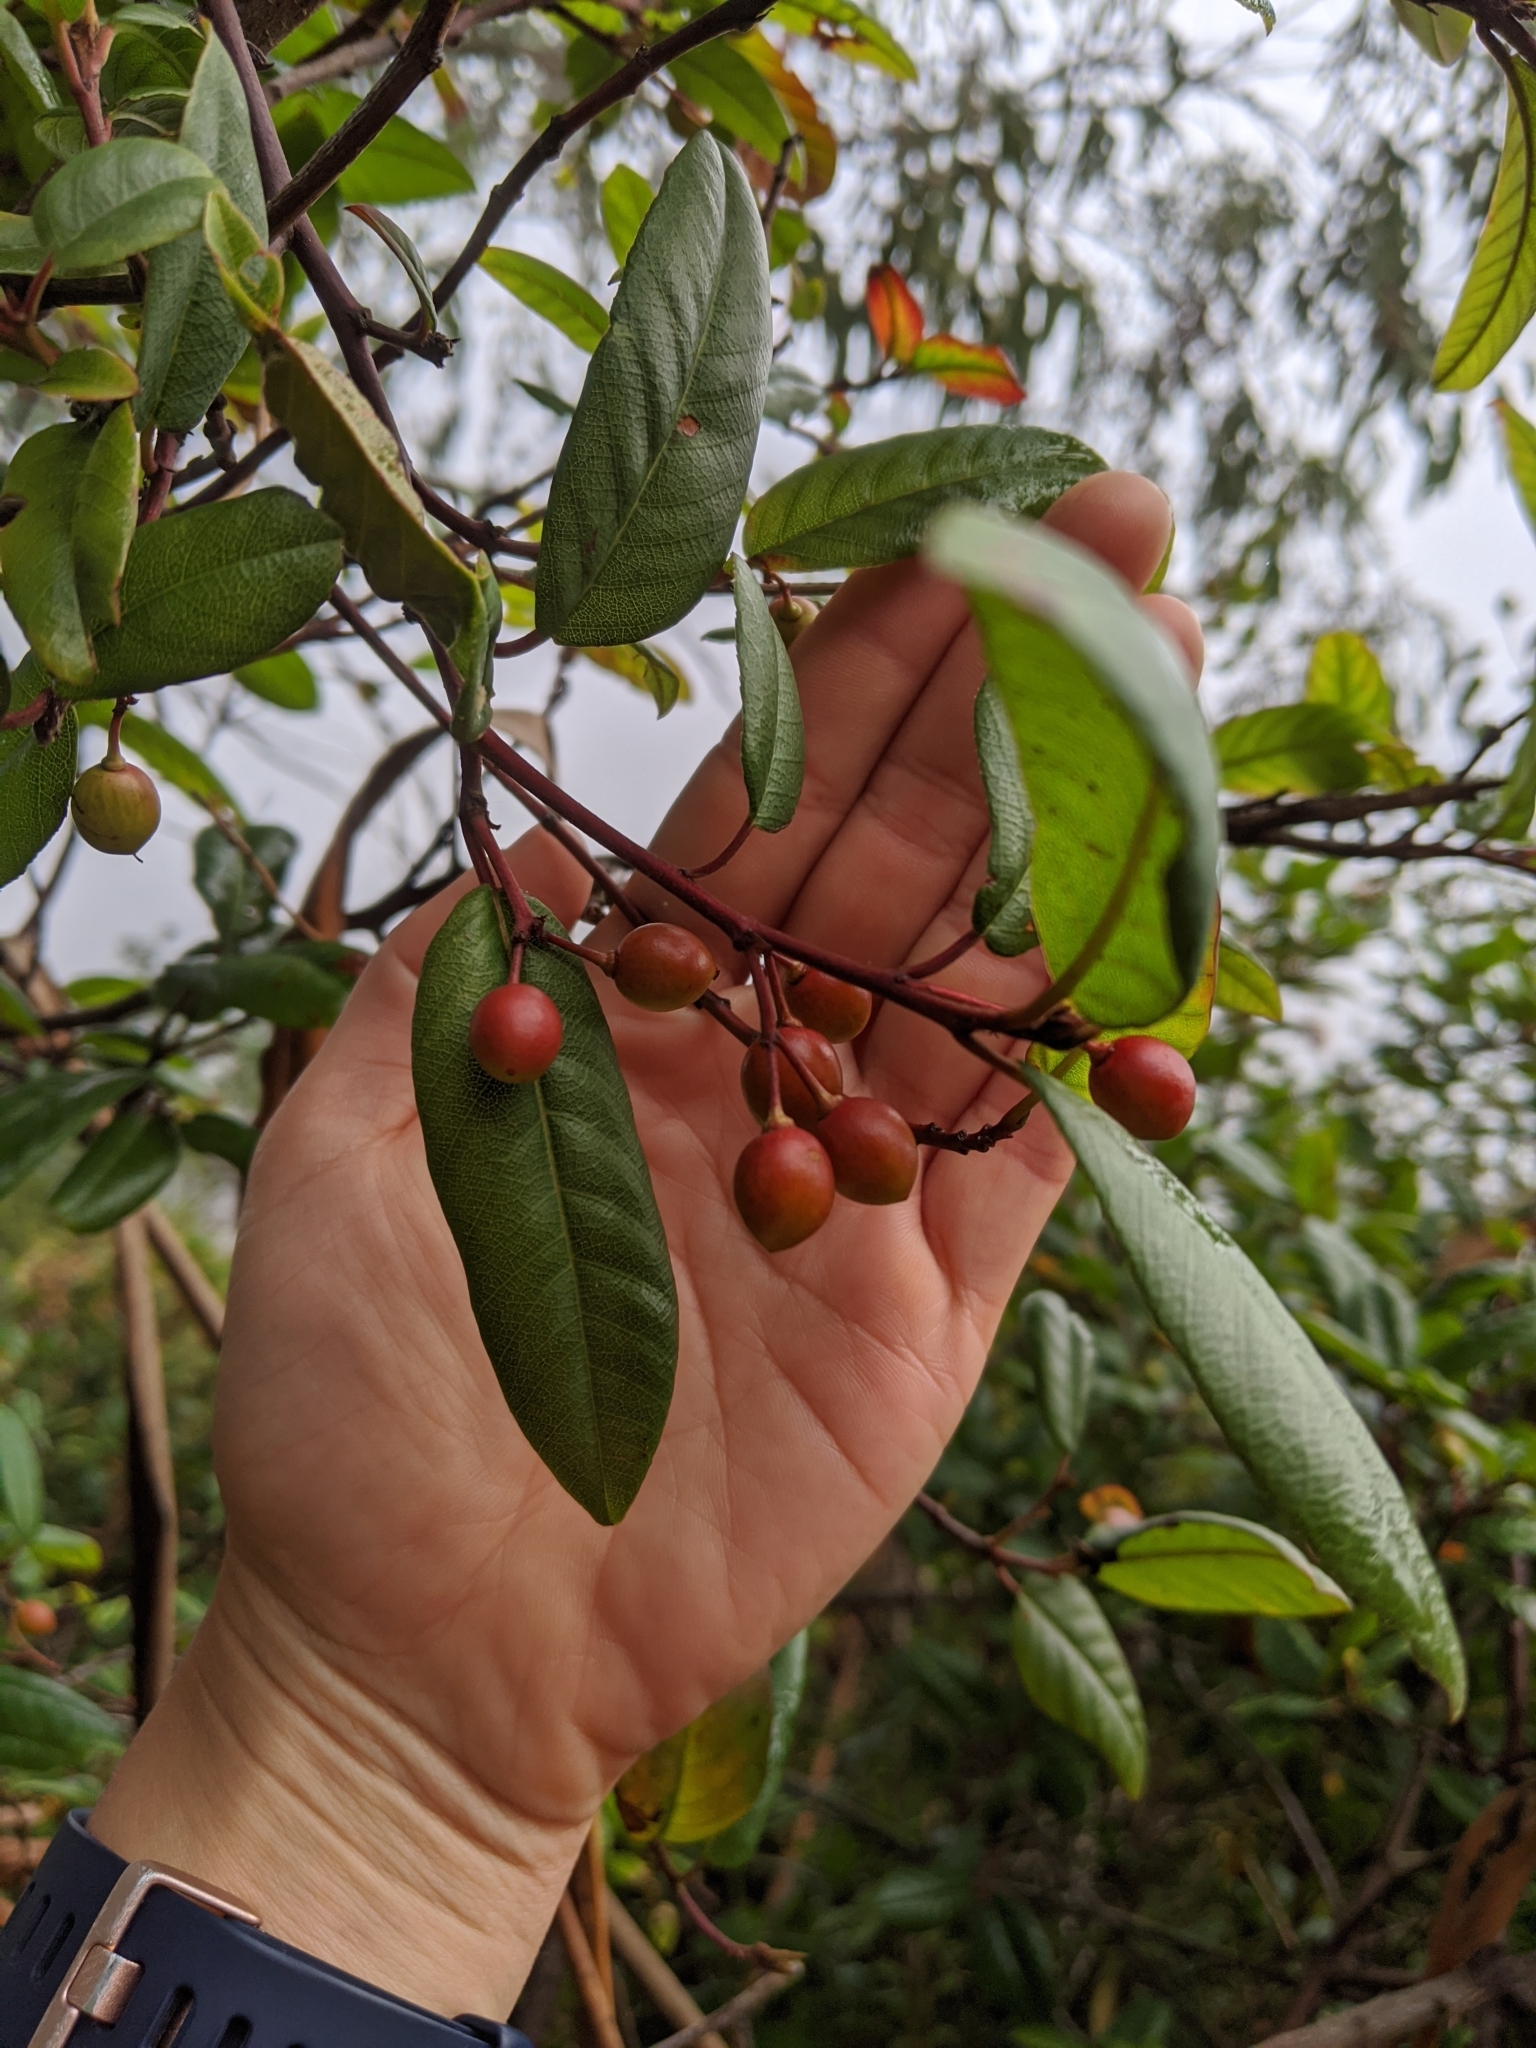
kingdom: Plantae
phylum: Tracheophyta
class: Magnoliopsida
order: Rosales
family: Rhamnaceae
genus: Frangula
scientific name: Frangula californica
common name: California buckthorn
